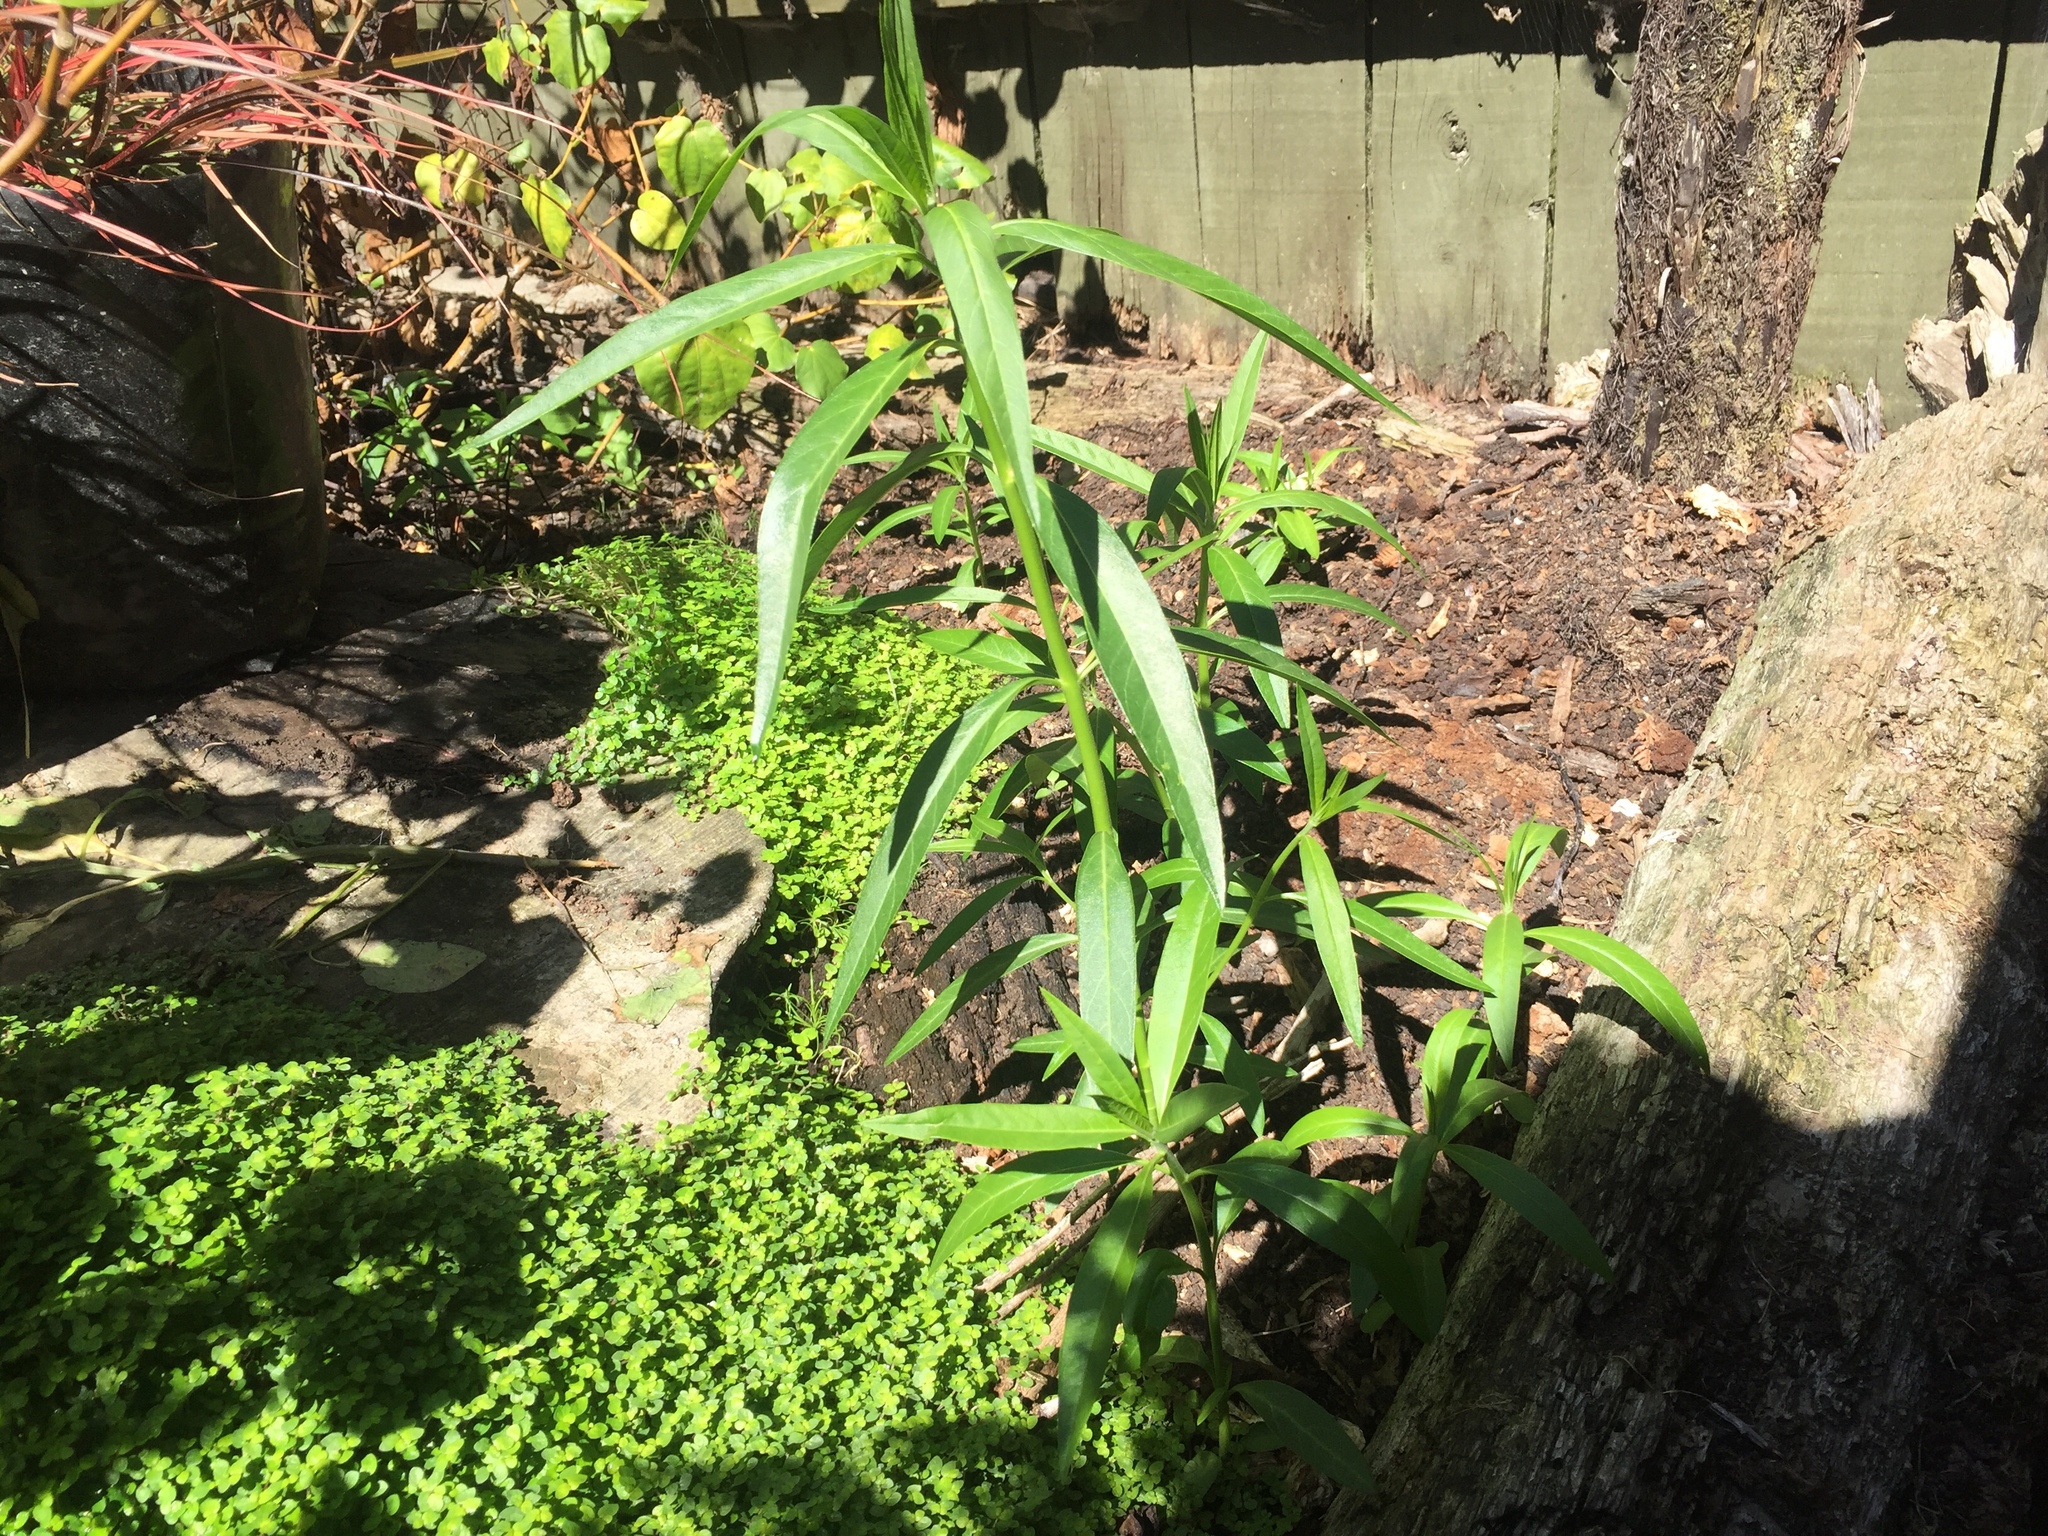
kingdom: Plantae
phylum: Tracheophyta
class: Magnoliopsida
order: Gentianales
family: Apocynaceae
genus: Gomphocarpus
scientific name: Gomphocarpus physocarpus
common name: Balloon cotton bush
